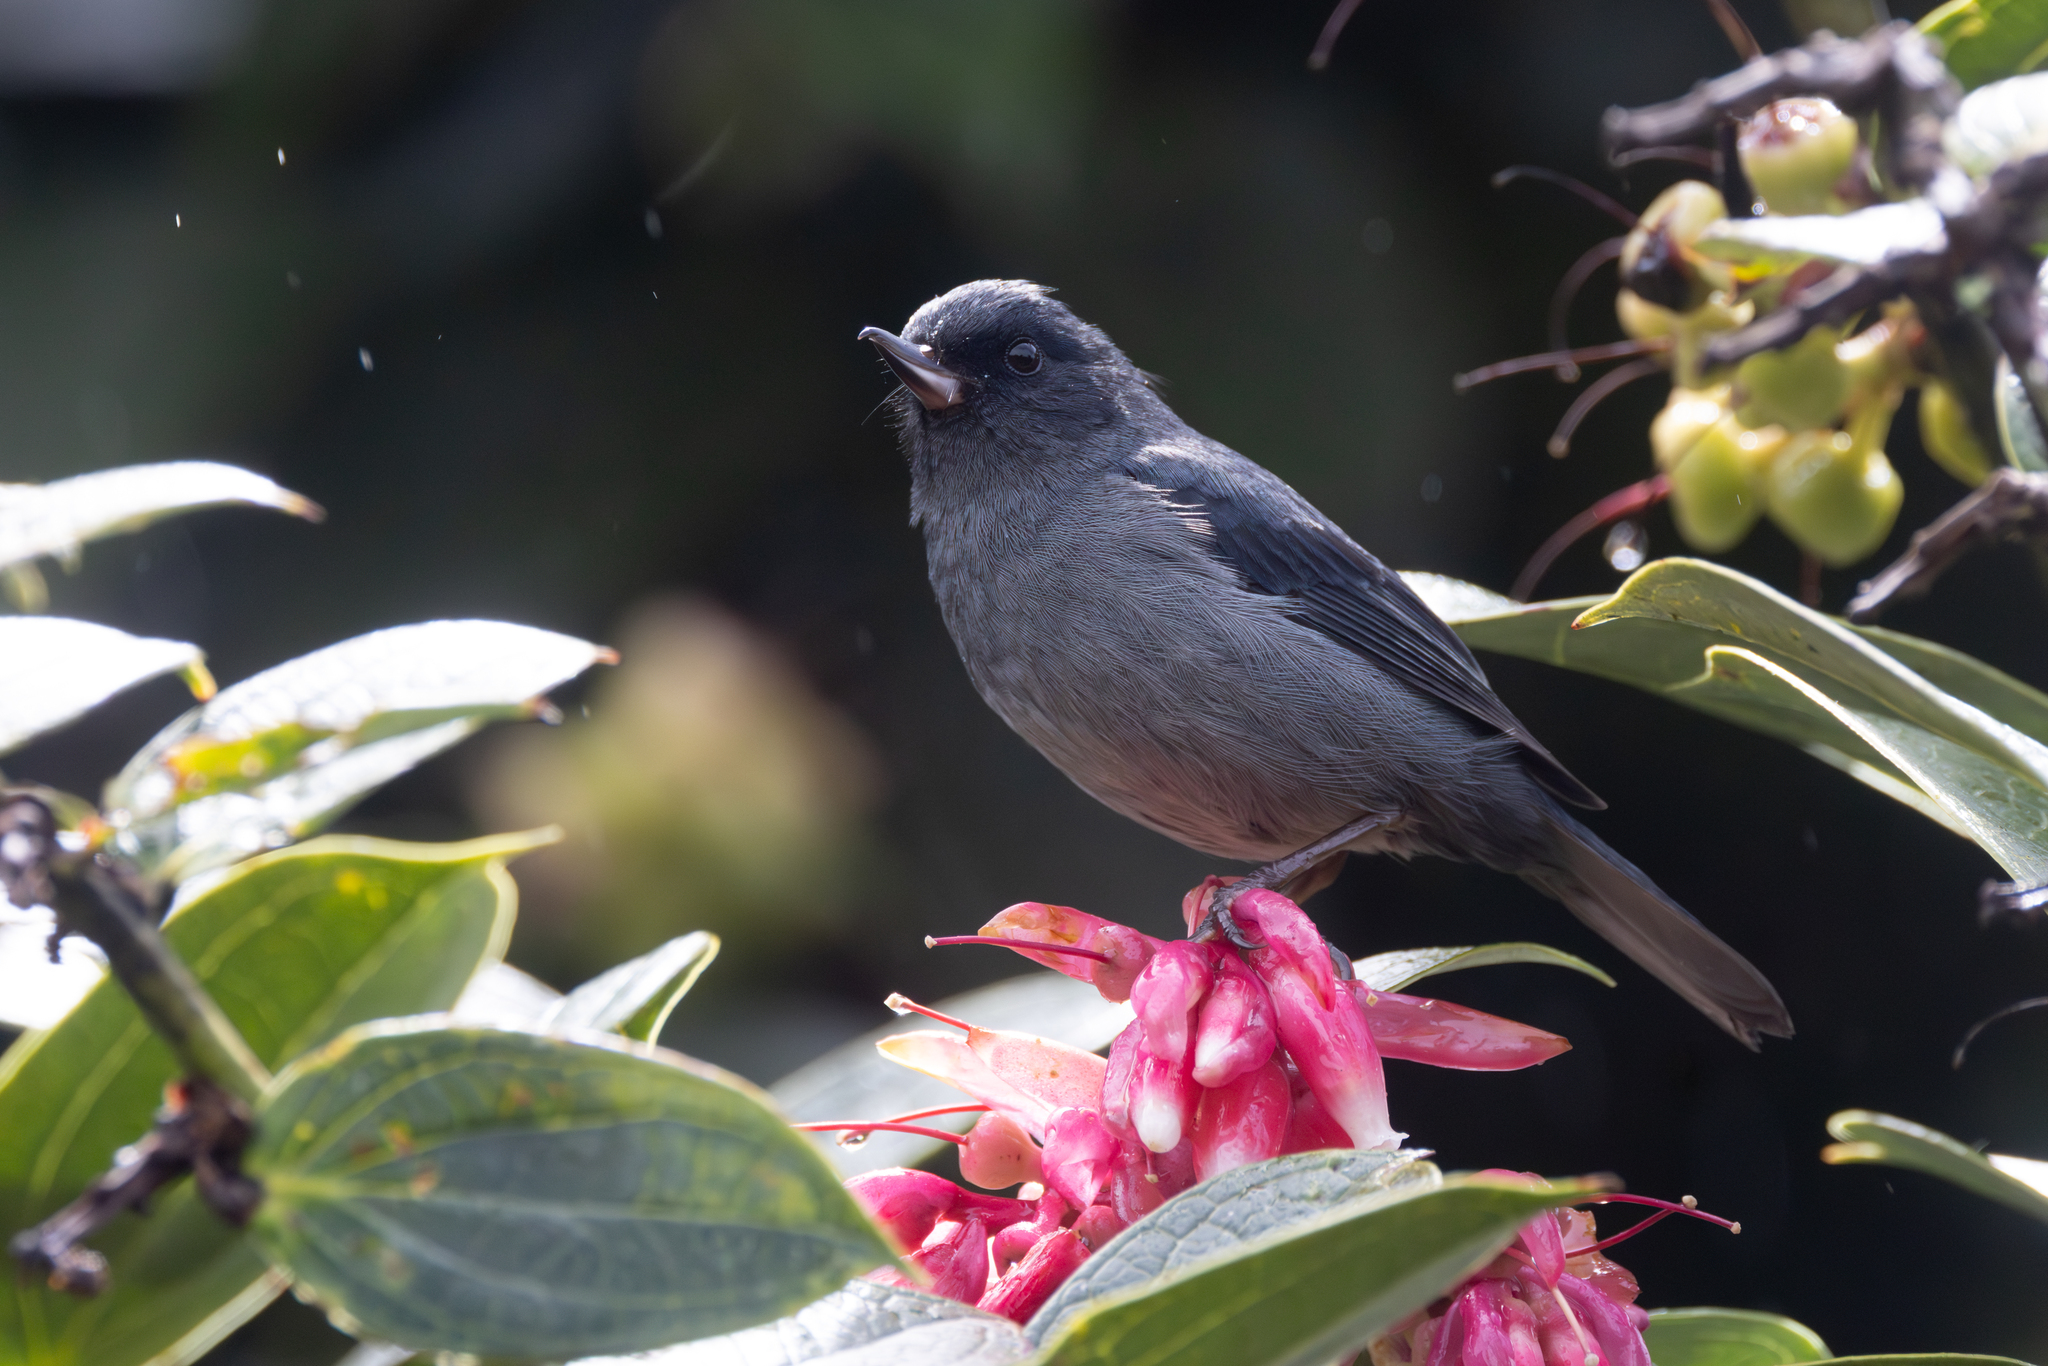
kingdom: Animalia
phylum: Chordata
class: Aves
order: Passeriformes
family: Thraupidae
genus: Diglossa
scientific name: Diglossa plumbea
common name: Slaty flowerpiercer
